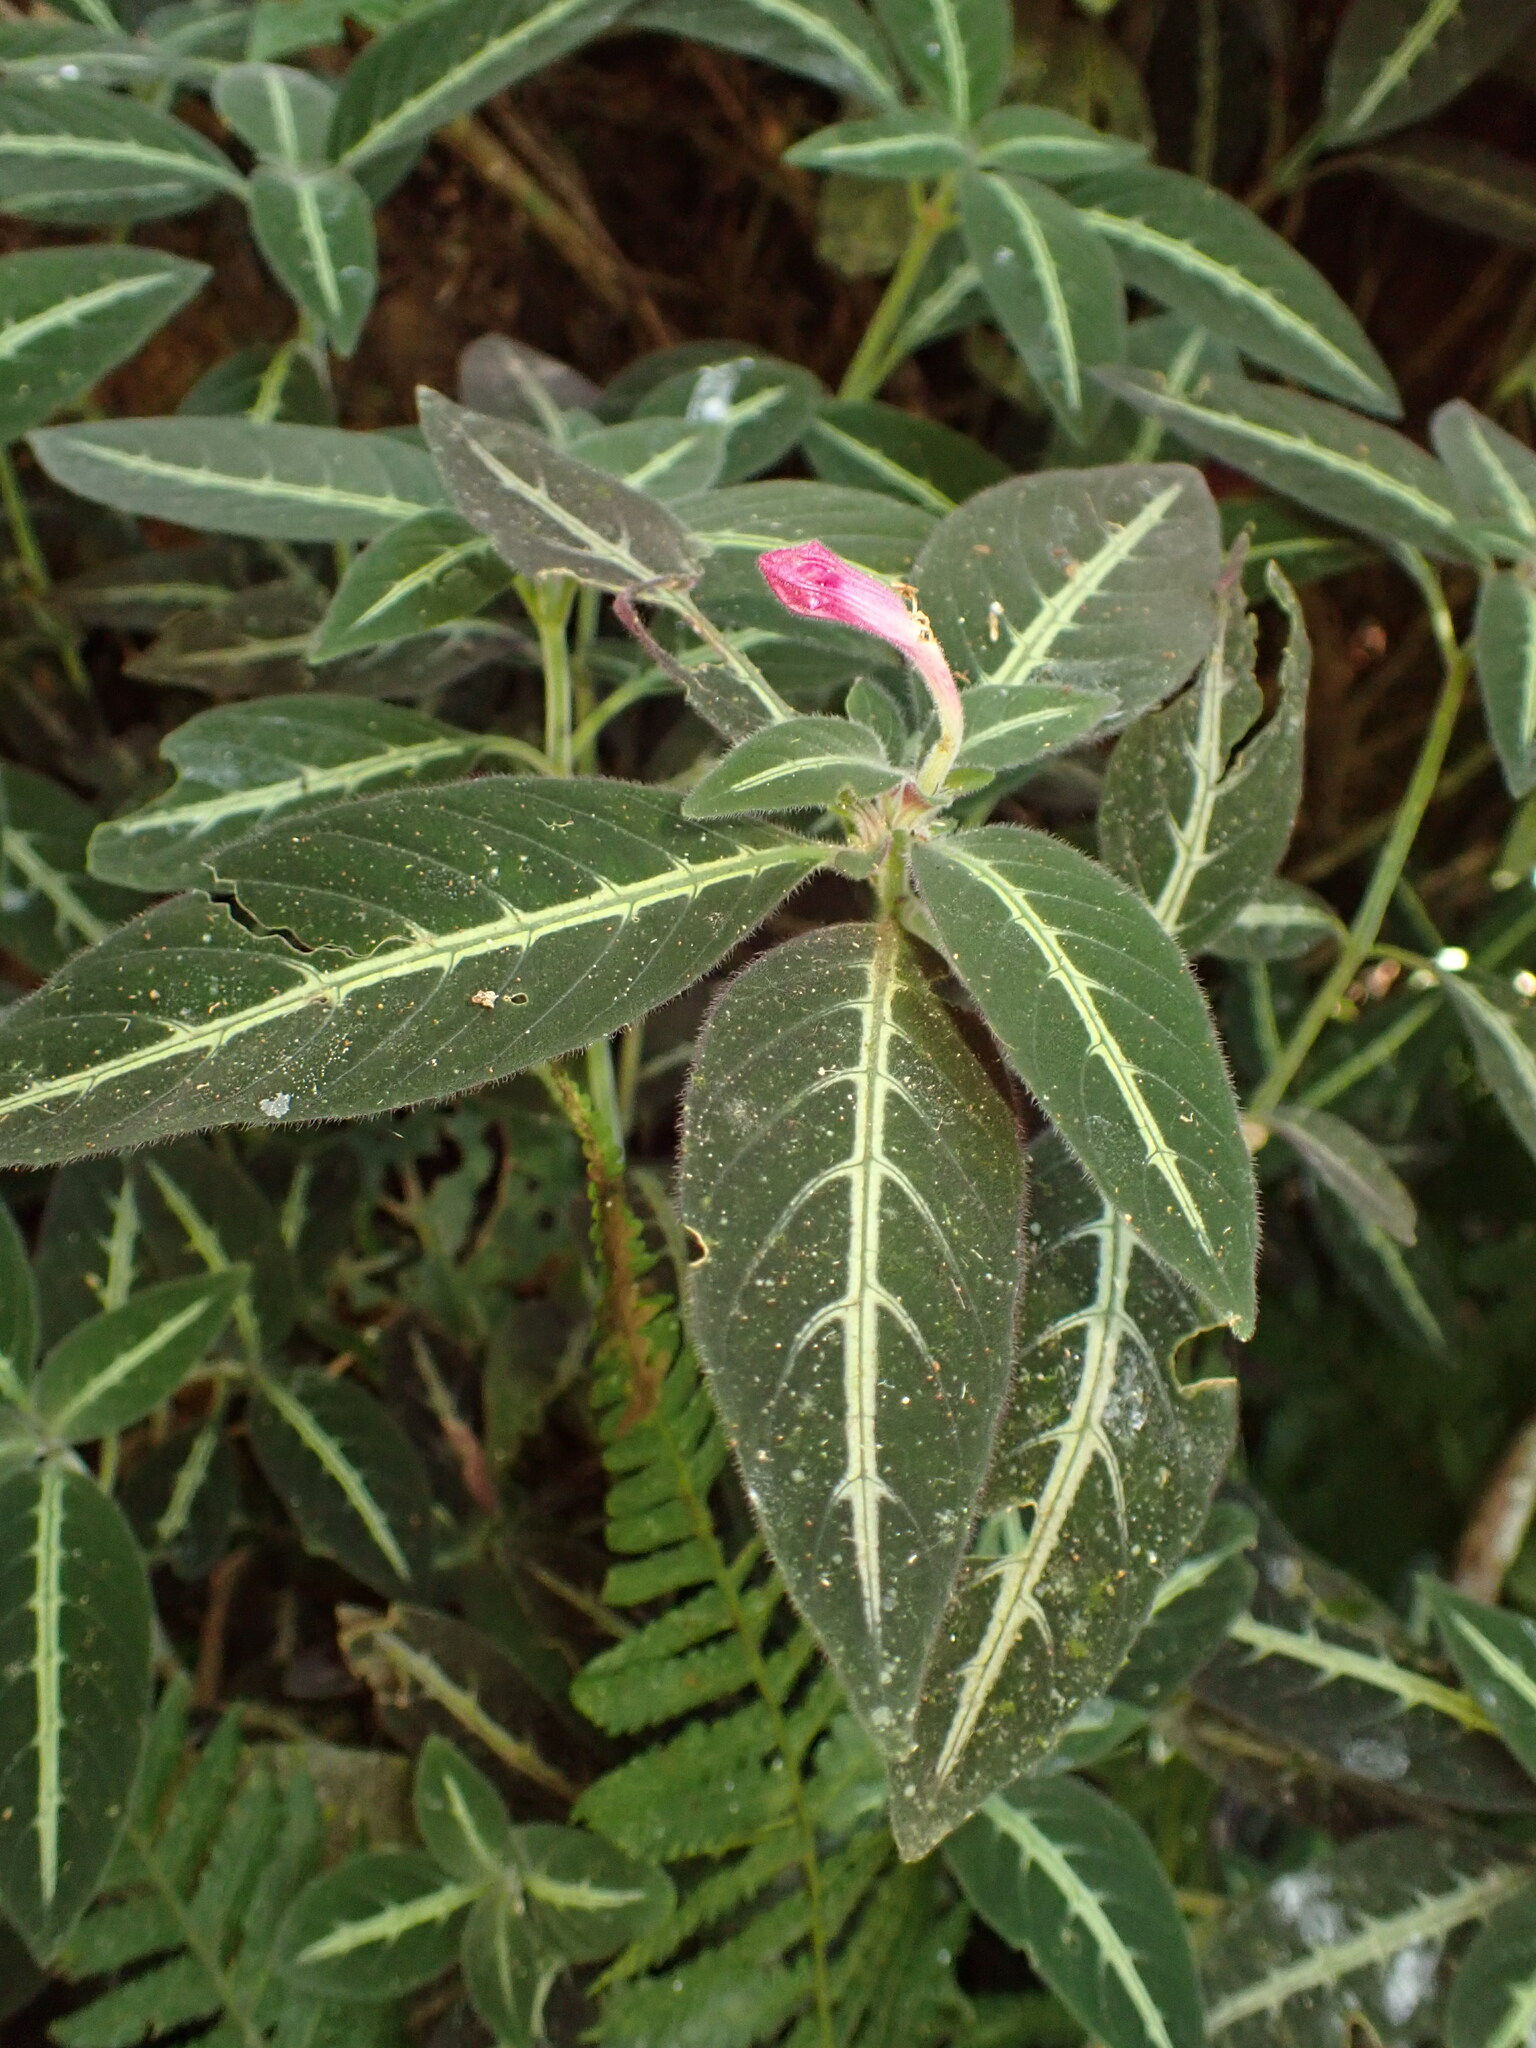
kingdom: Plantae
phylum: Tracheophyta
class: Magnoliopsida
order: Lamiales
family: Acanthaceae
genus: Ruellia
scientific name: Ruellia makoyana
